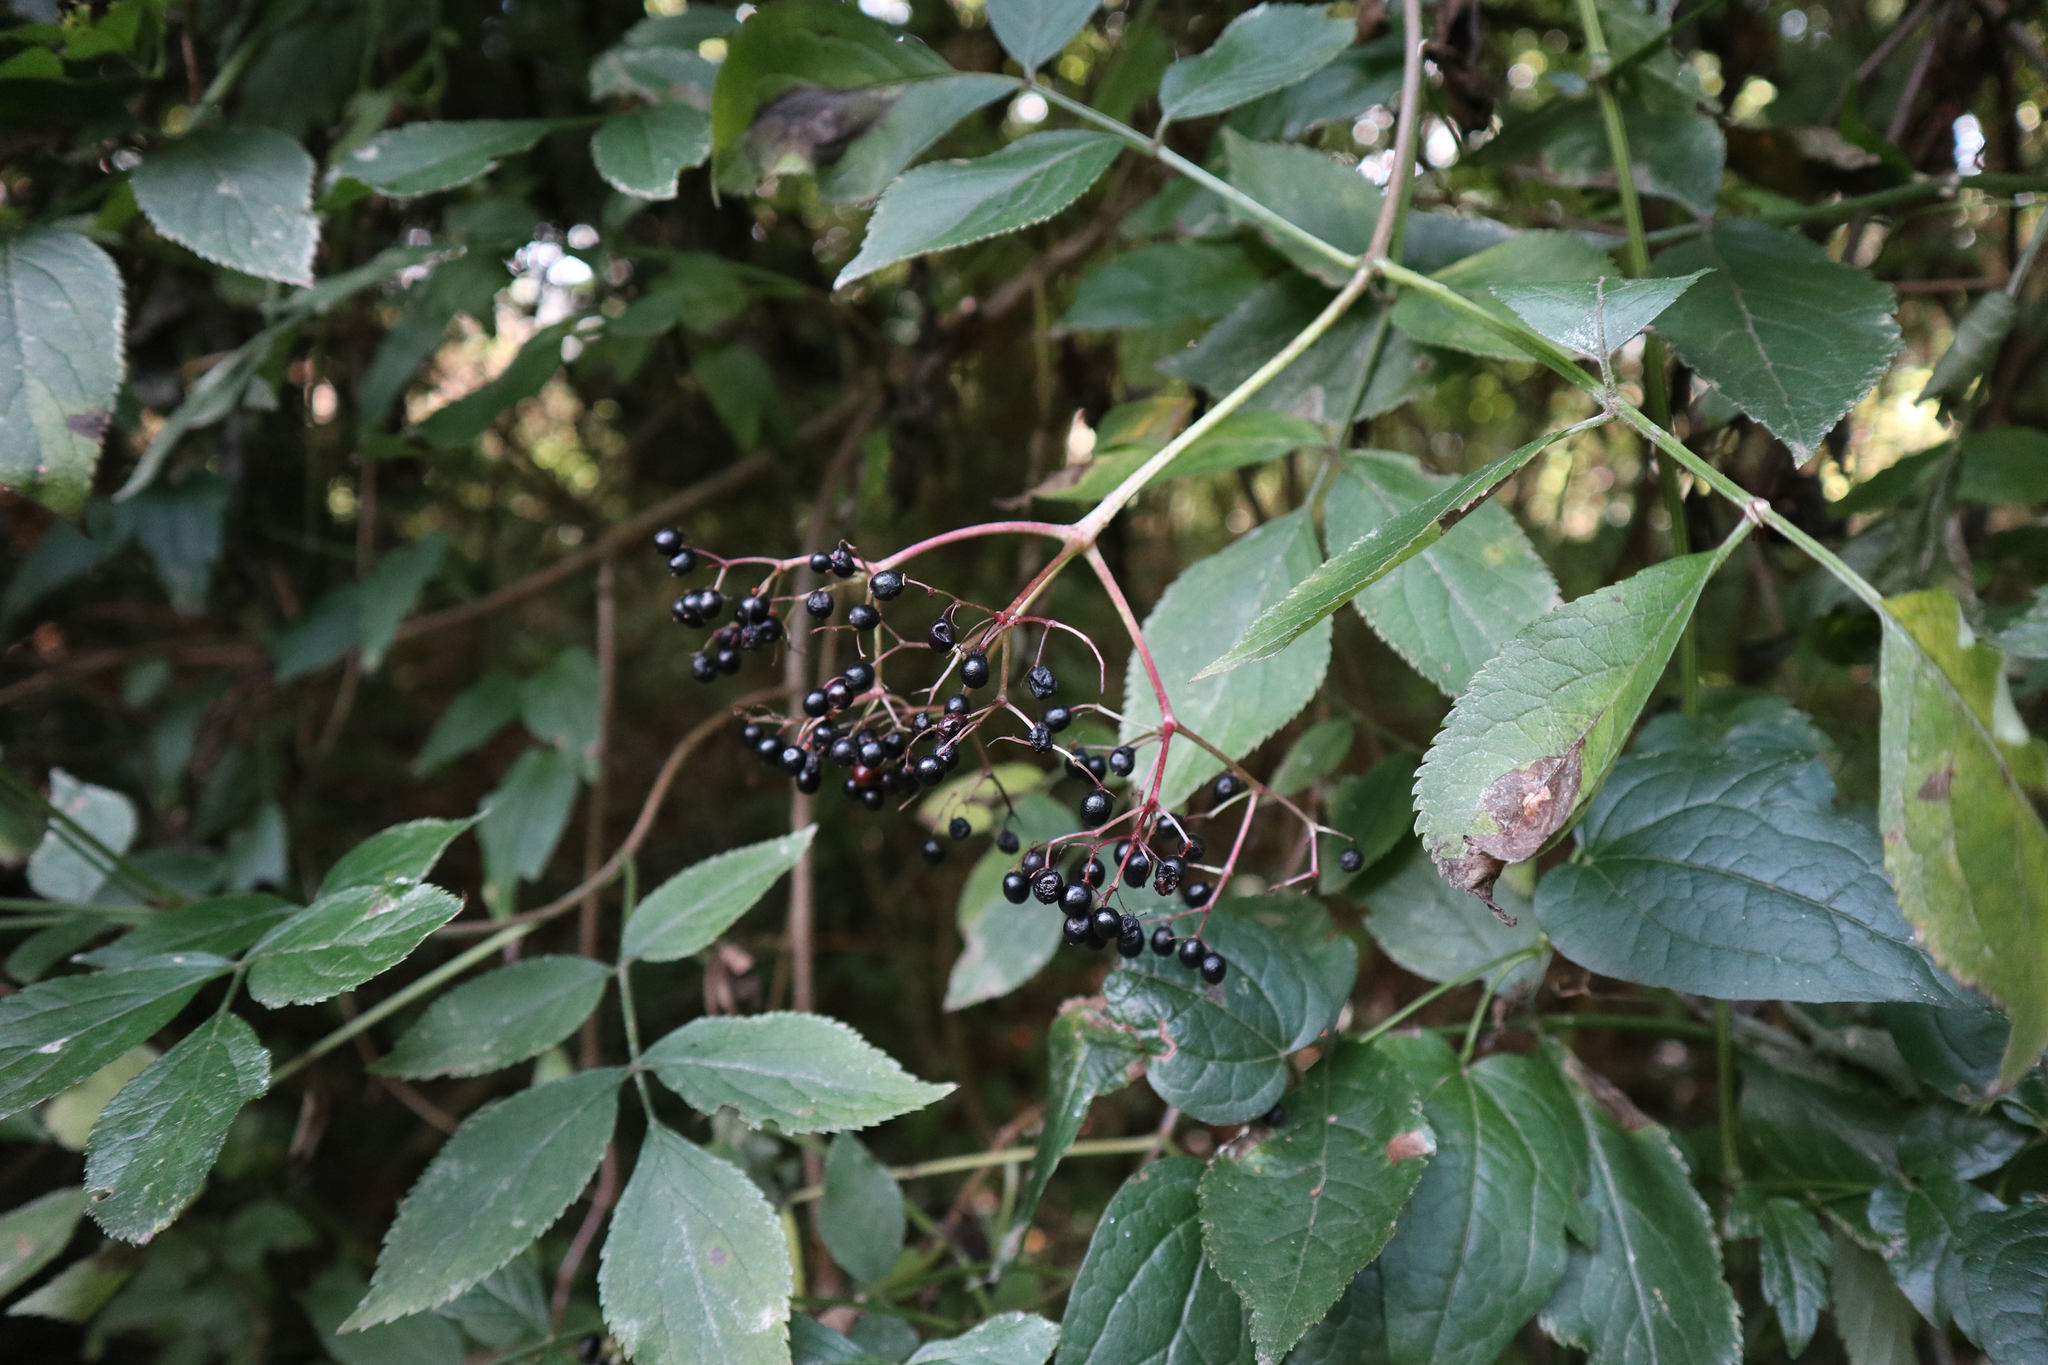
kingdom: Plantae
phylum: Tracheophyta
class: Magnoliopsida
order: Dipsacales
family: Viburnaceae
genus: Sambucus
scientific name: Sambucus nigra
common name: Elder
